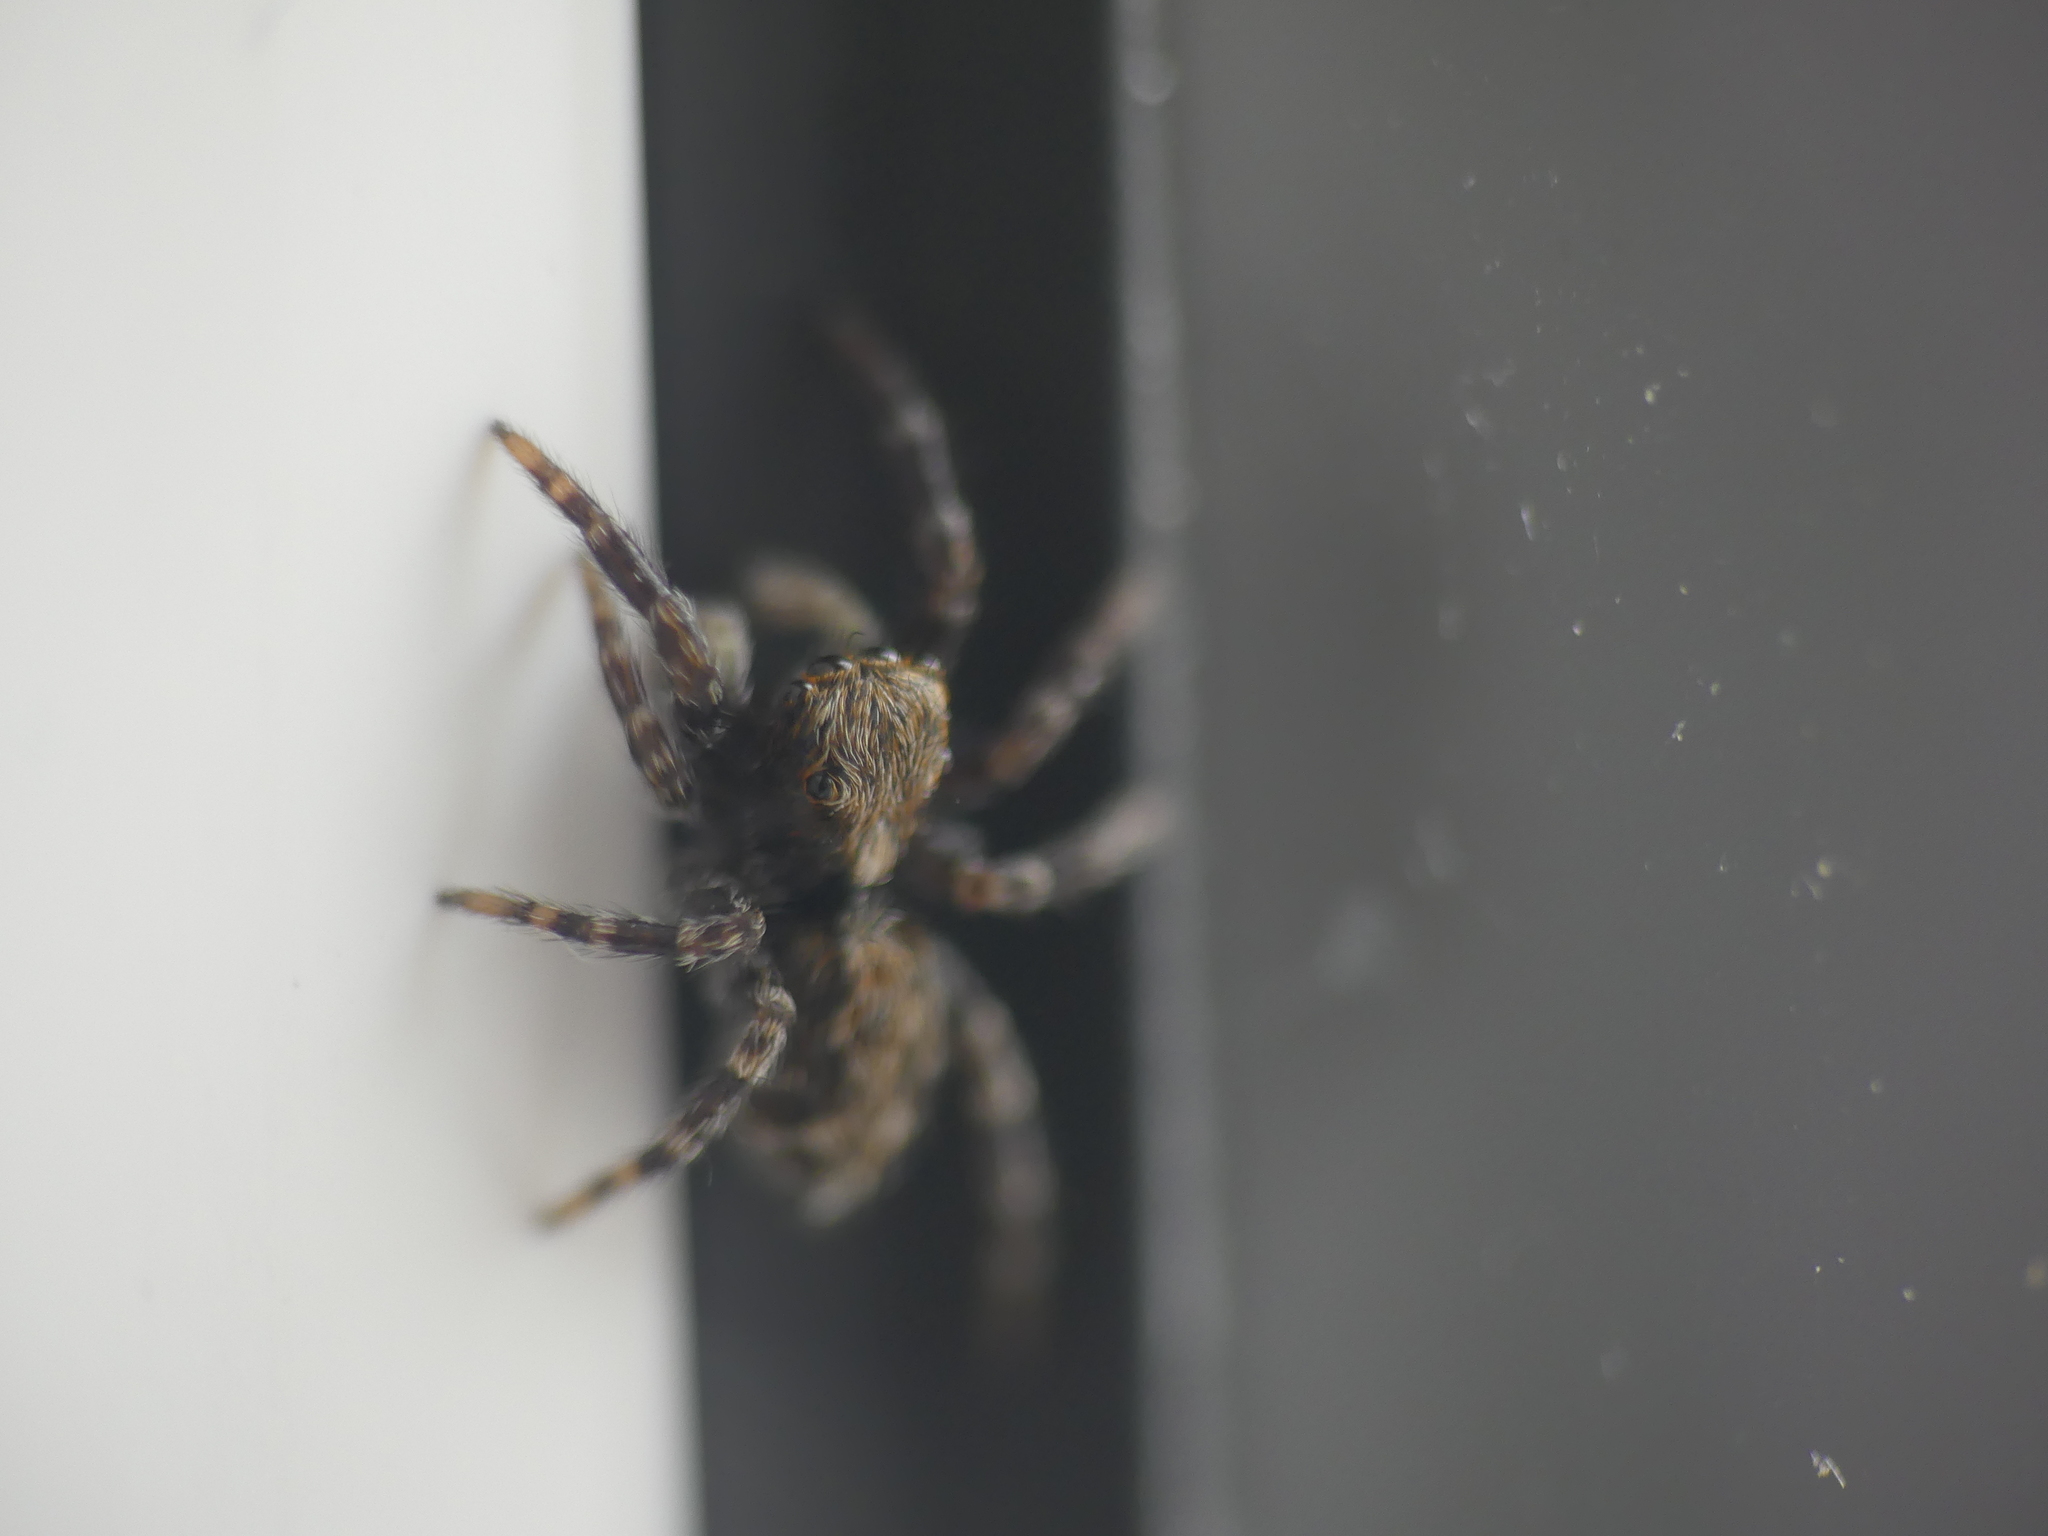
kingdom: Animalia
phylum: Arthropoda
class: Arachnida
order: Araneae
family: Salticidae
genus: Pseudeuophrys
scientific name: Pseudeuophrys lanigera
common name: Jumping spider
